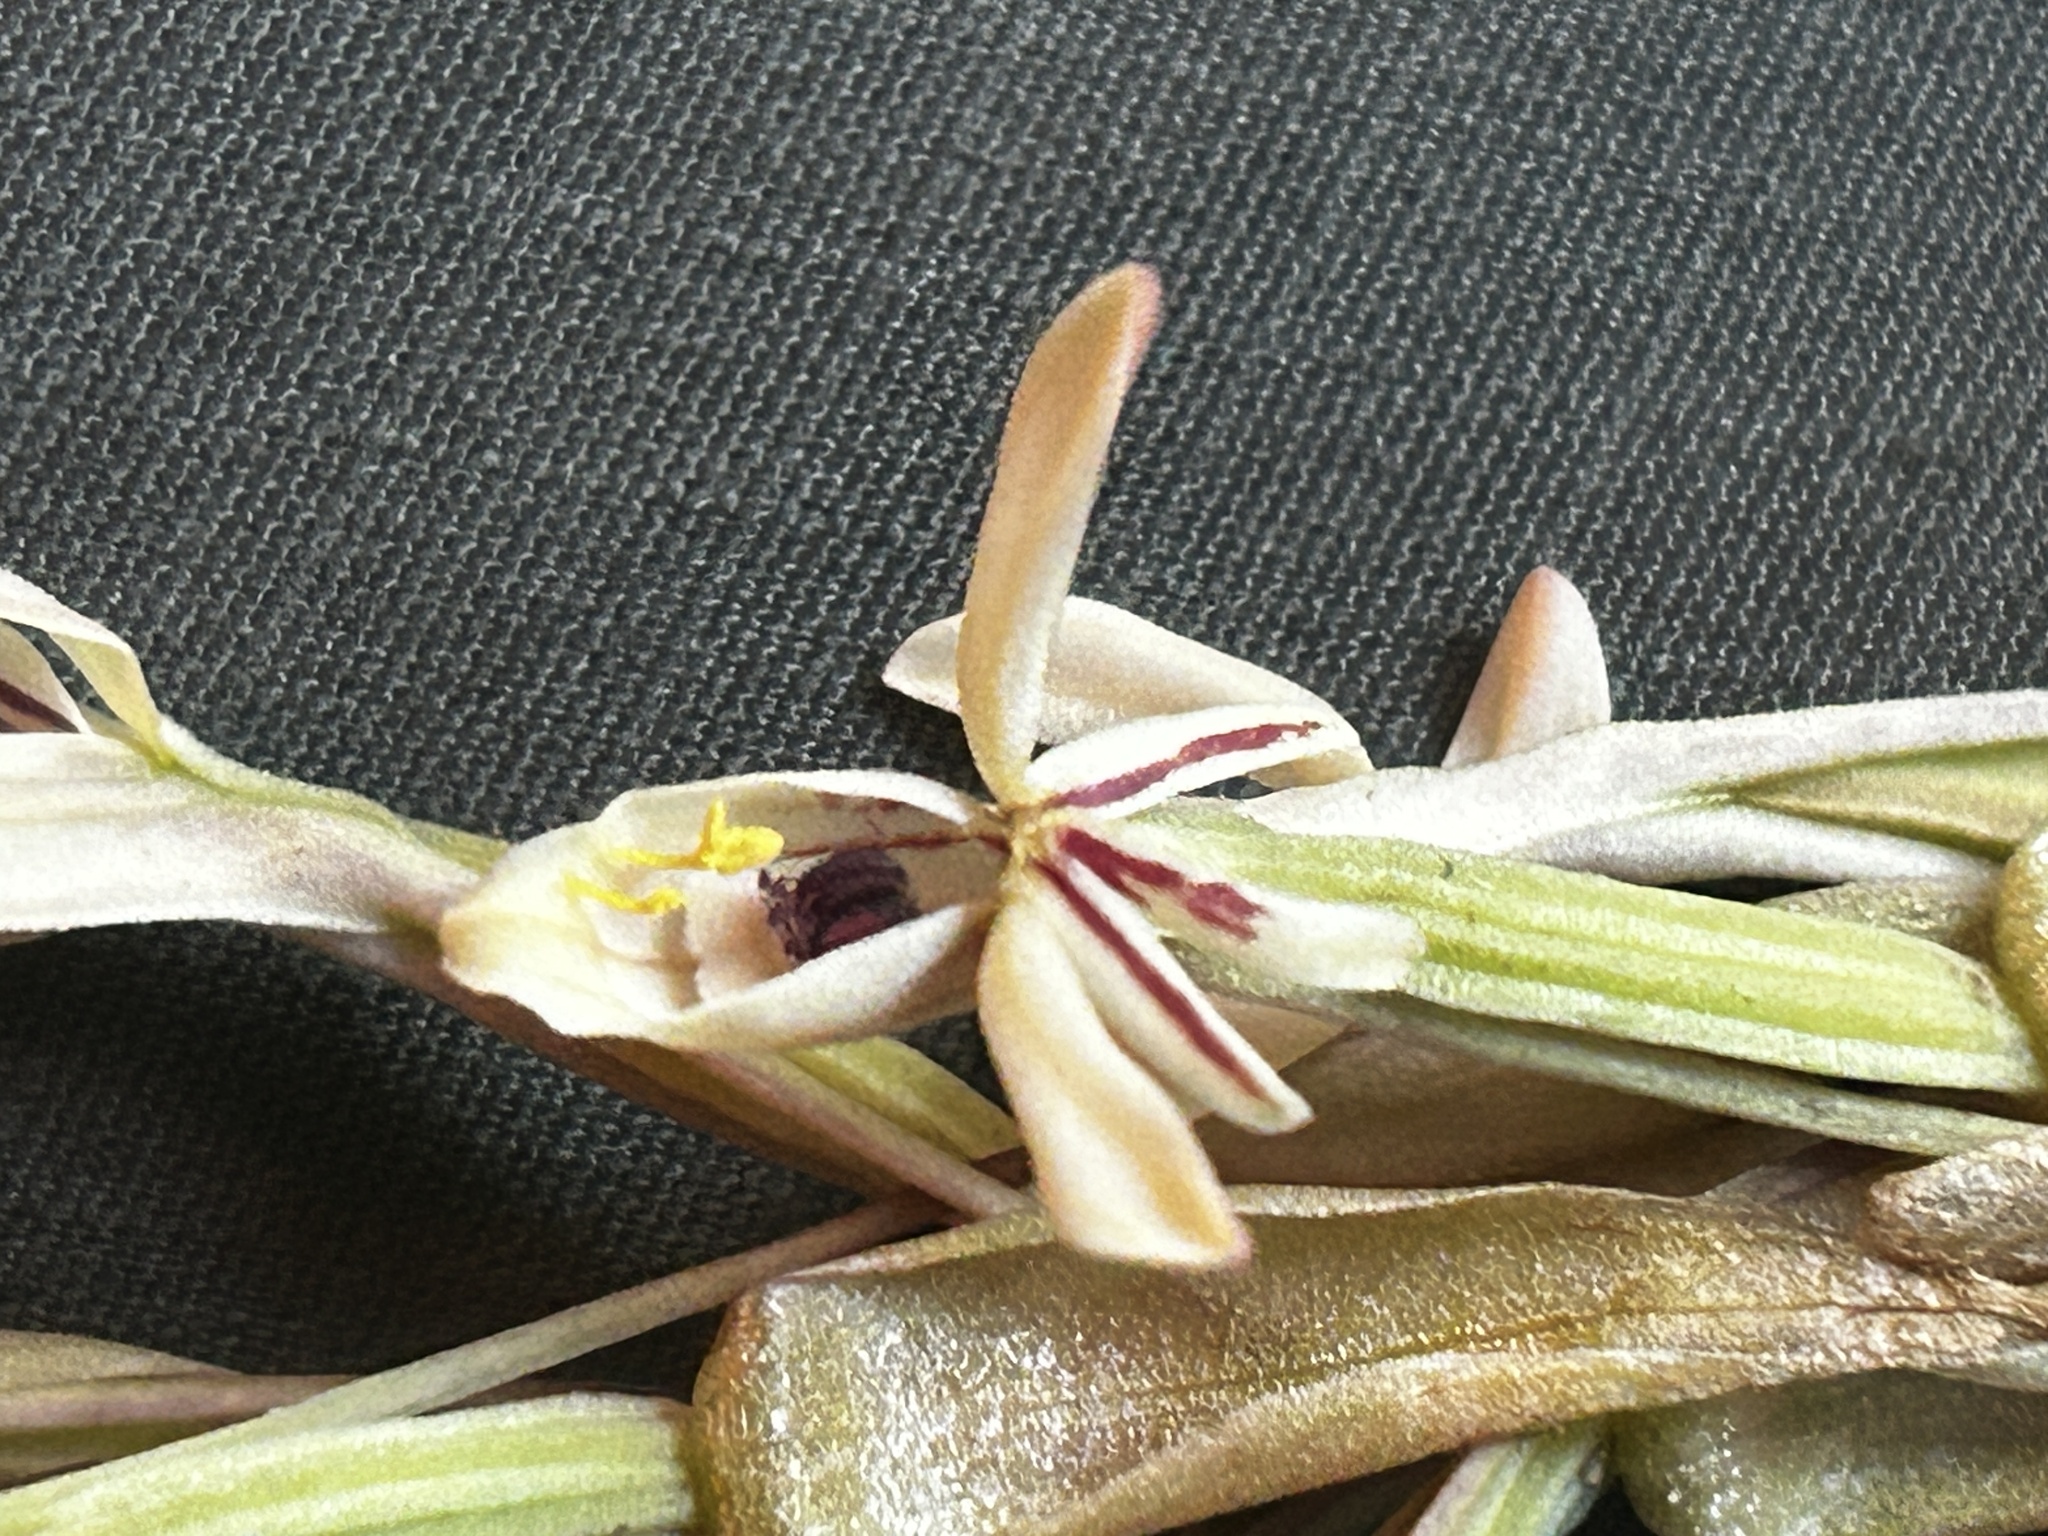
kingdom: Plantae
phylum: Tracheophyta
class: Liliopsida
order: Asparagales
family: Orchidaceae
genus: Satyrium
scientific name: Satyrium longicolle
